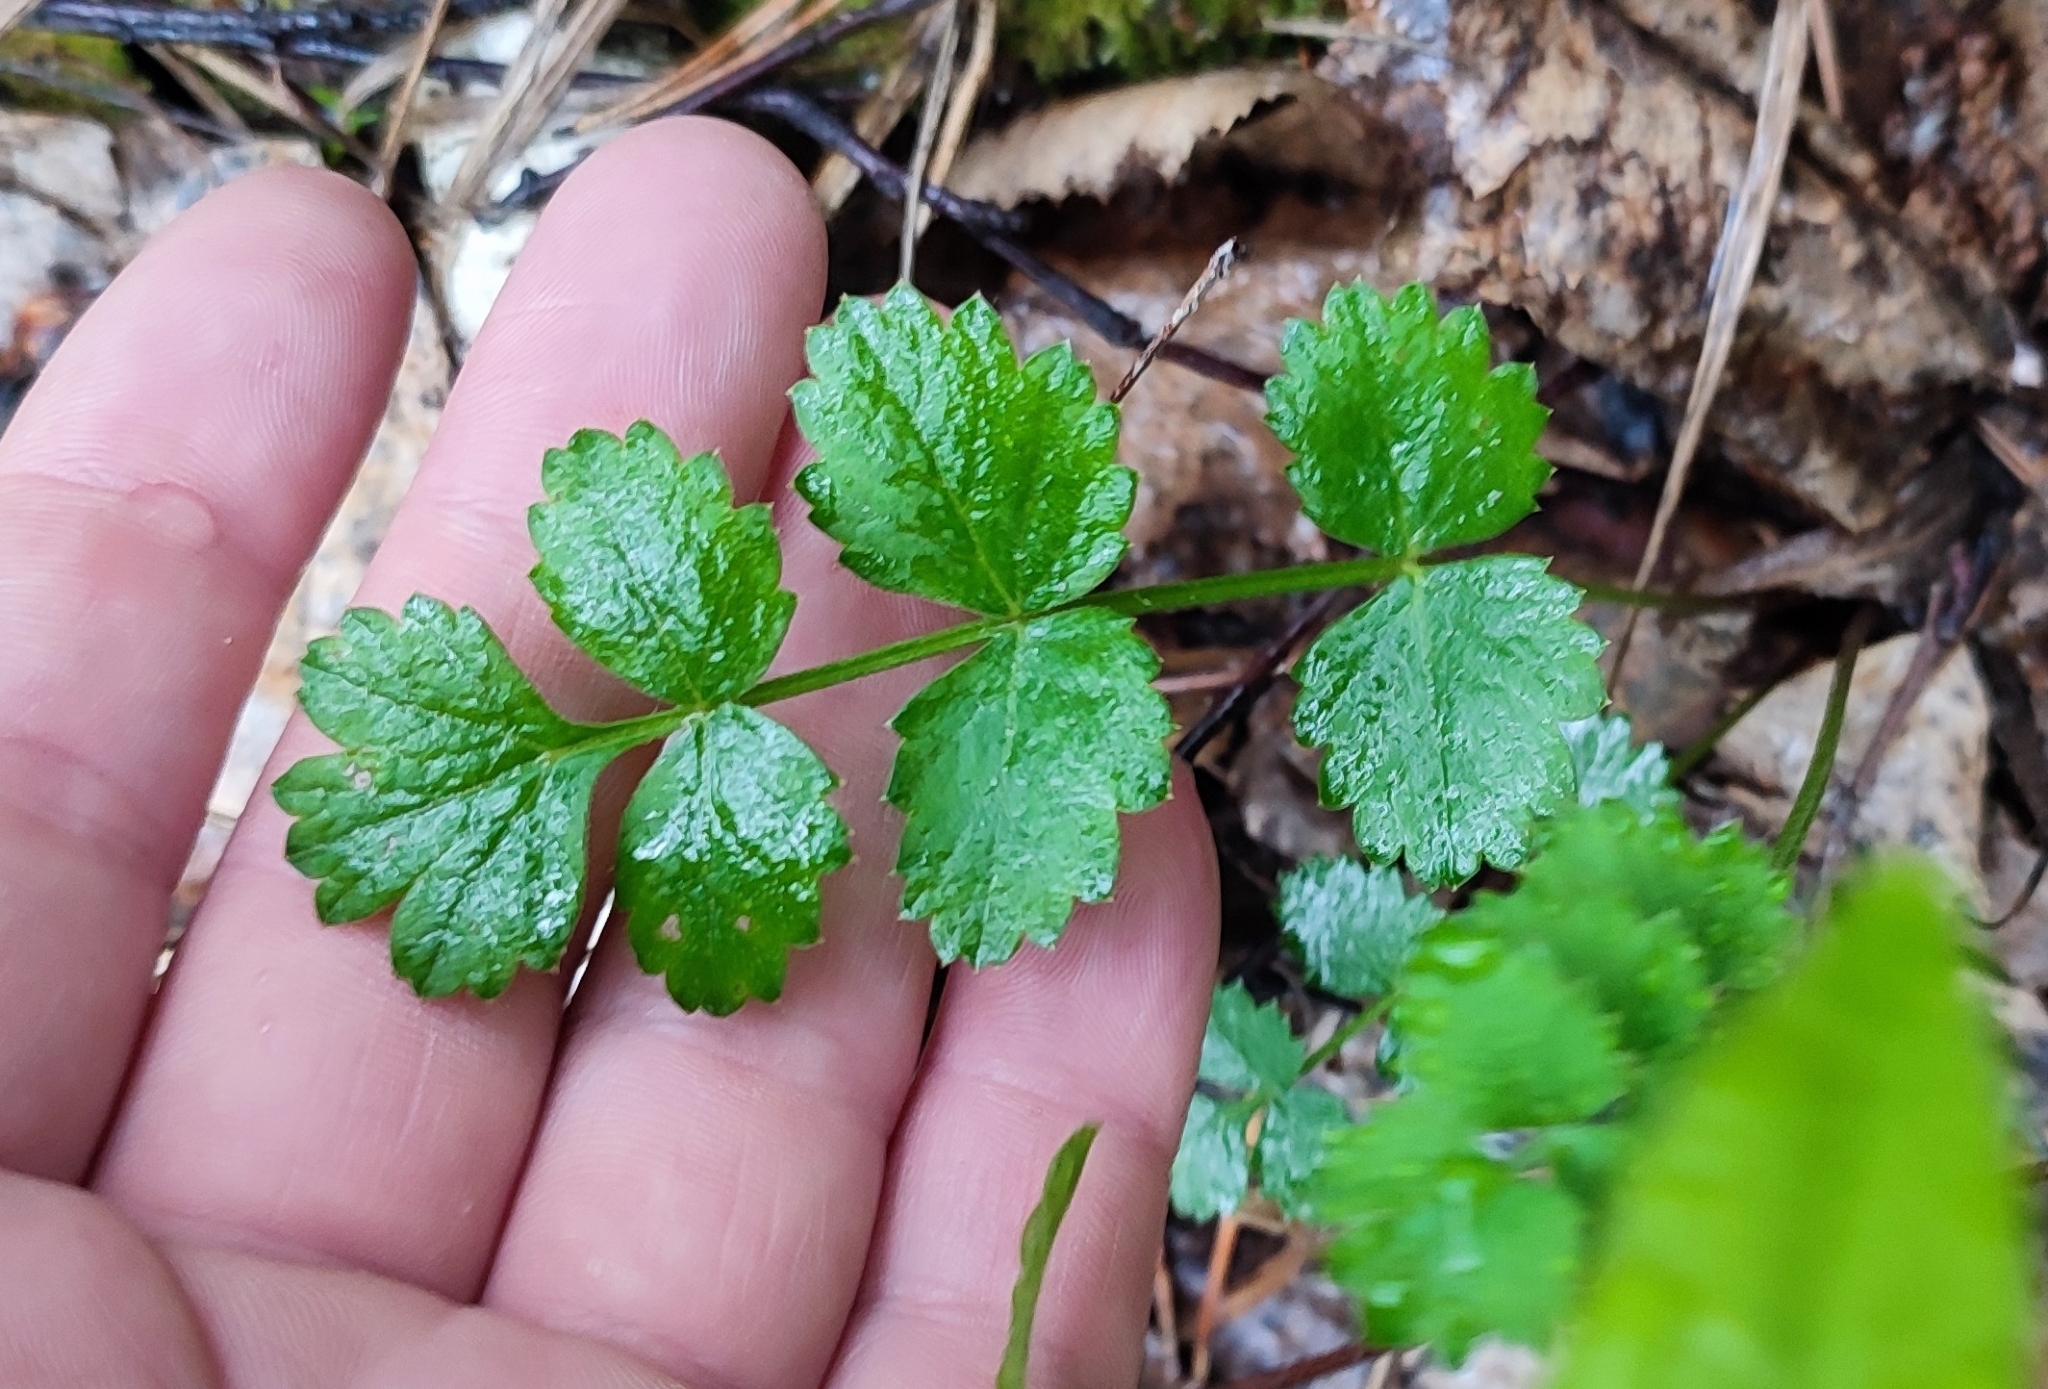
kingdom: Plantae
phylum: Tracheophyta
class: Magnoliopsida
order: Apiales
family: Apiaceae
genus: Pimpinella
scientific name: Pimpinella saxifraga
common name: Burnet-saxifrage
